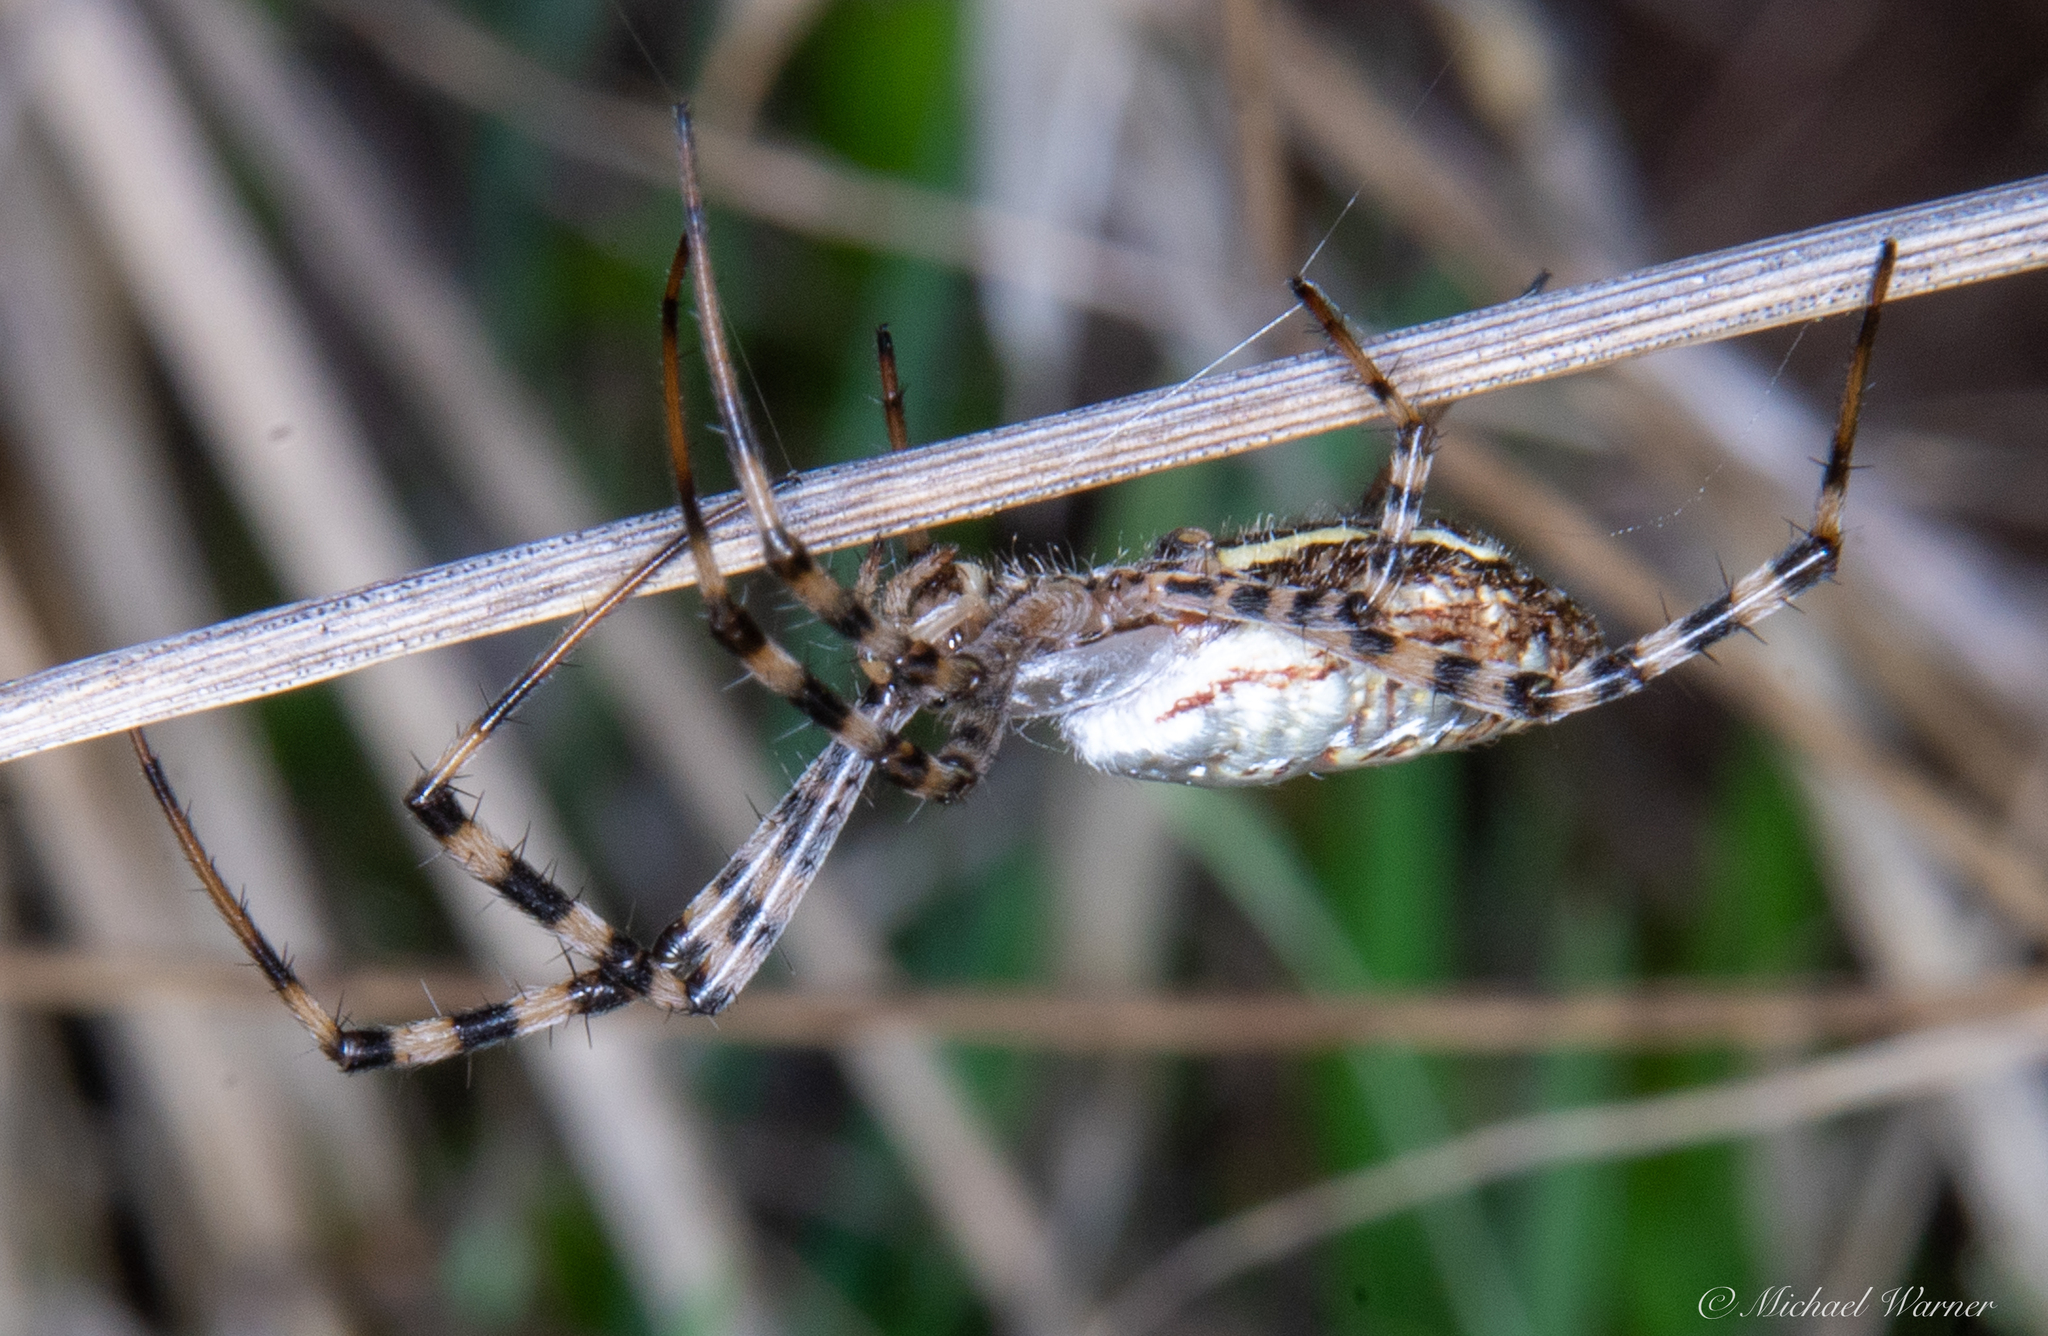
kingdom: Animalia
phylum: Arthropoda
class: Arachnida
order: Araneae
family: Araneidae
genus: Argiope
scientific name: Argiope trifasciata
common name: Banded garden spider
